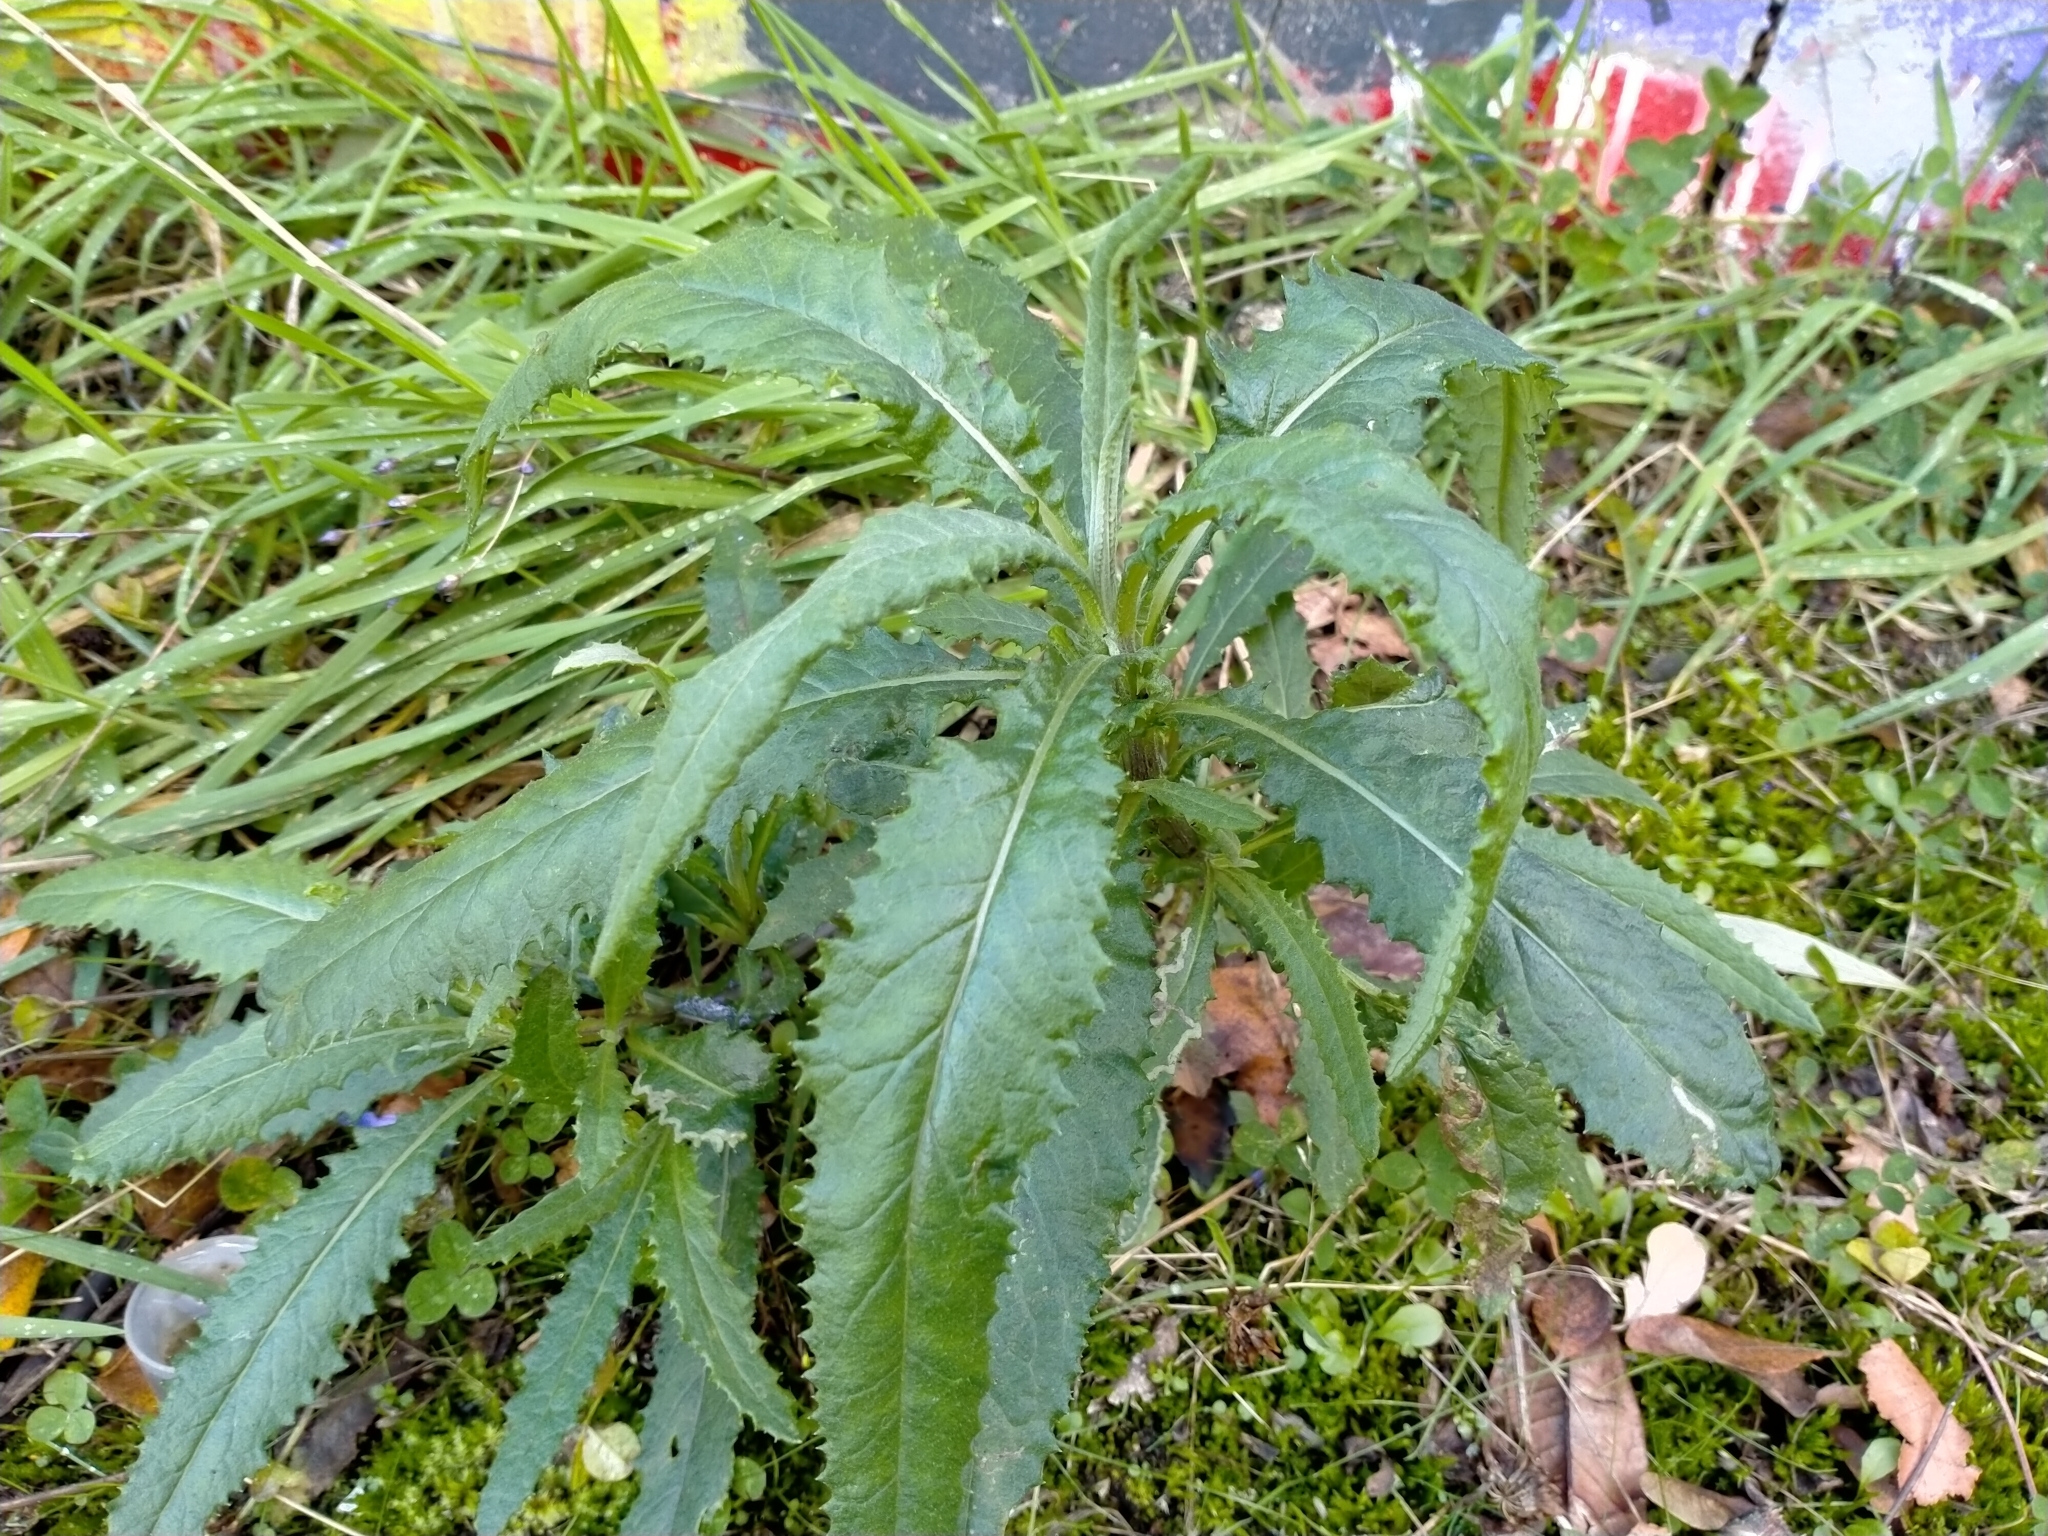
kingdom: Plantae
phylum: Tracheophyta
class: Magnoliopsida
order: Asterales
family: Asteraceae
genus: Senecio
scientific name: Senecio minimus
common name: Toothed fireweed
